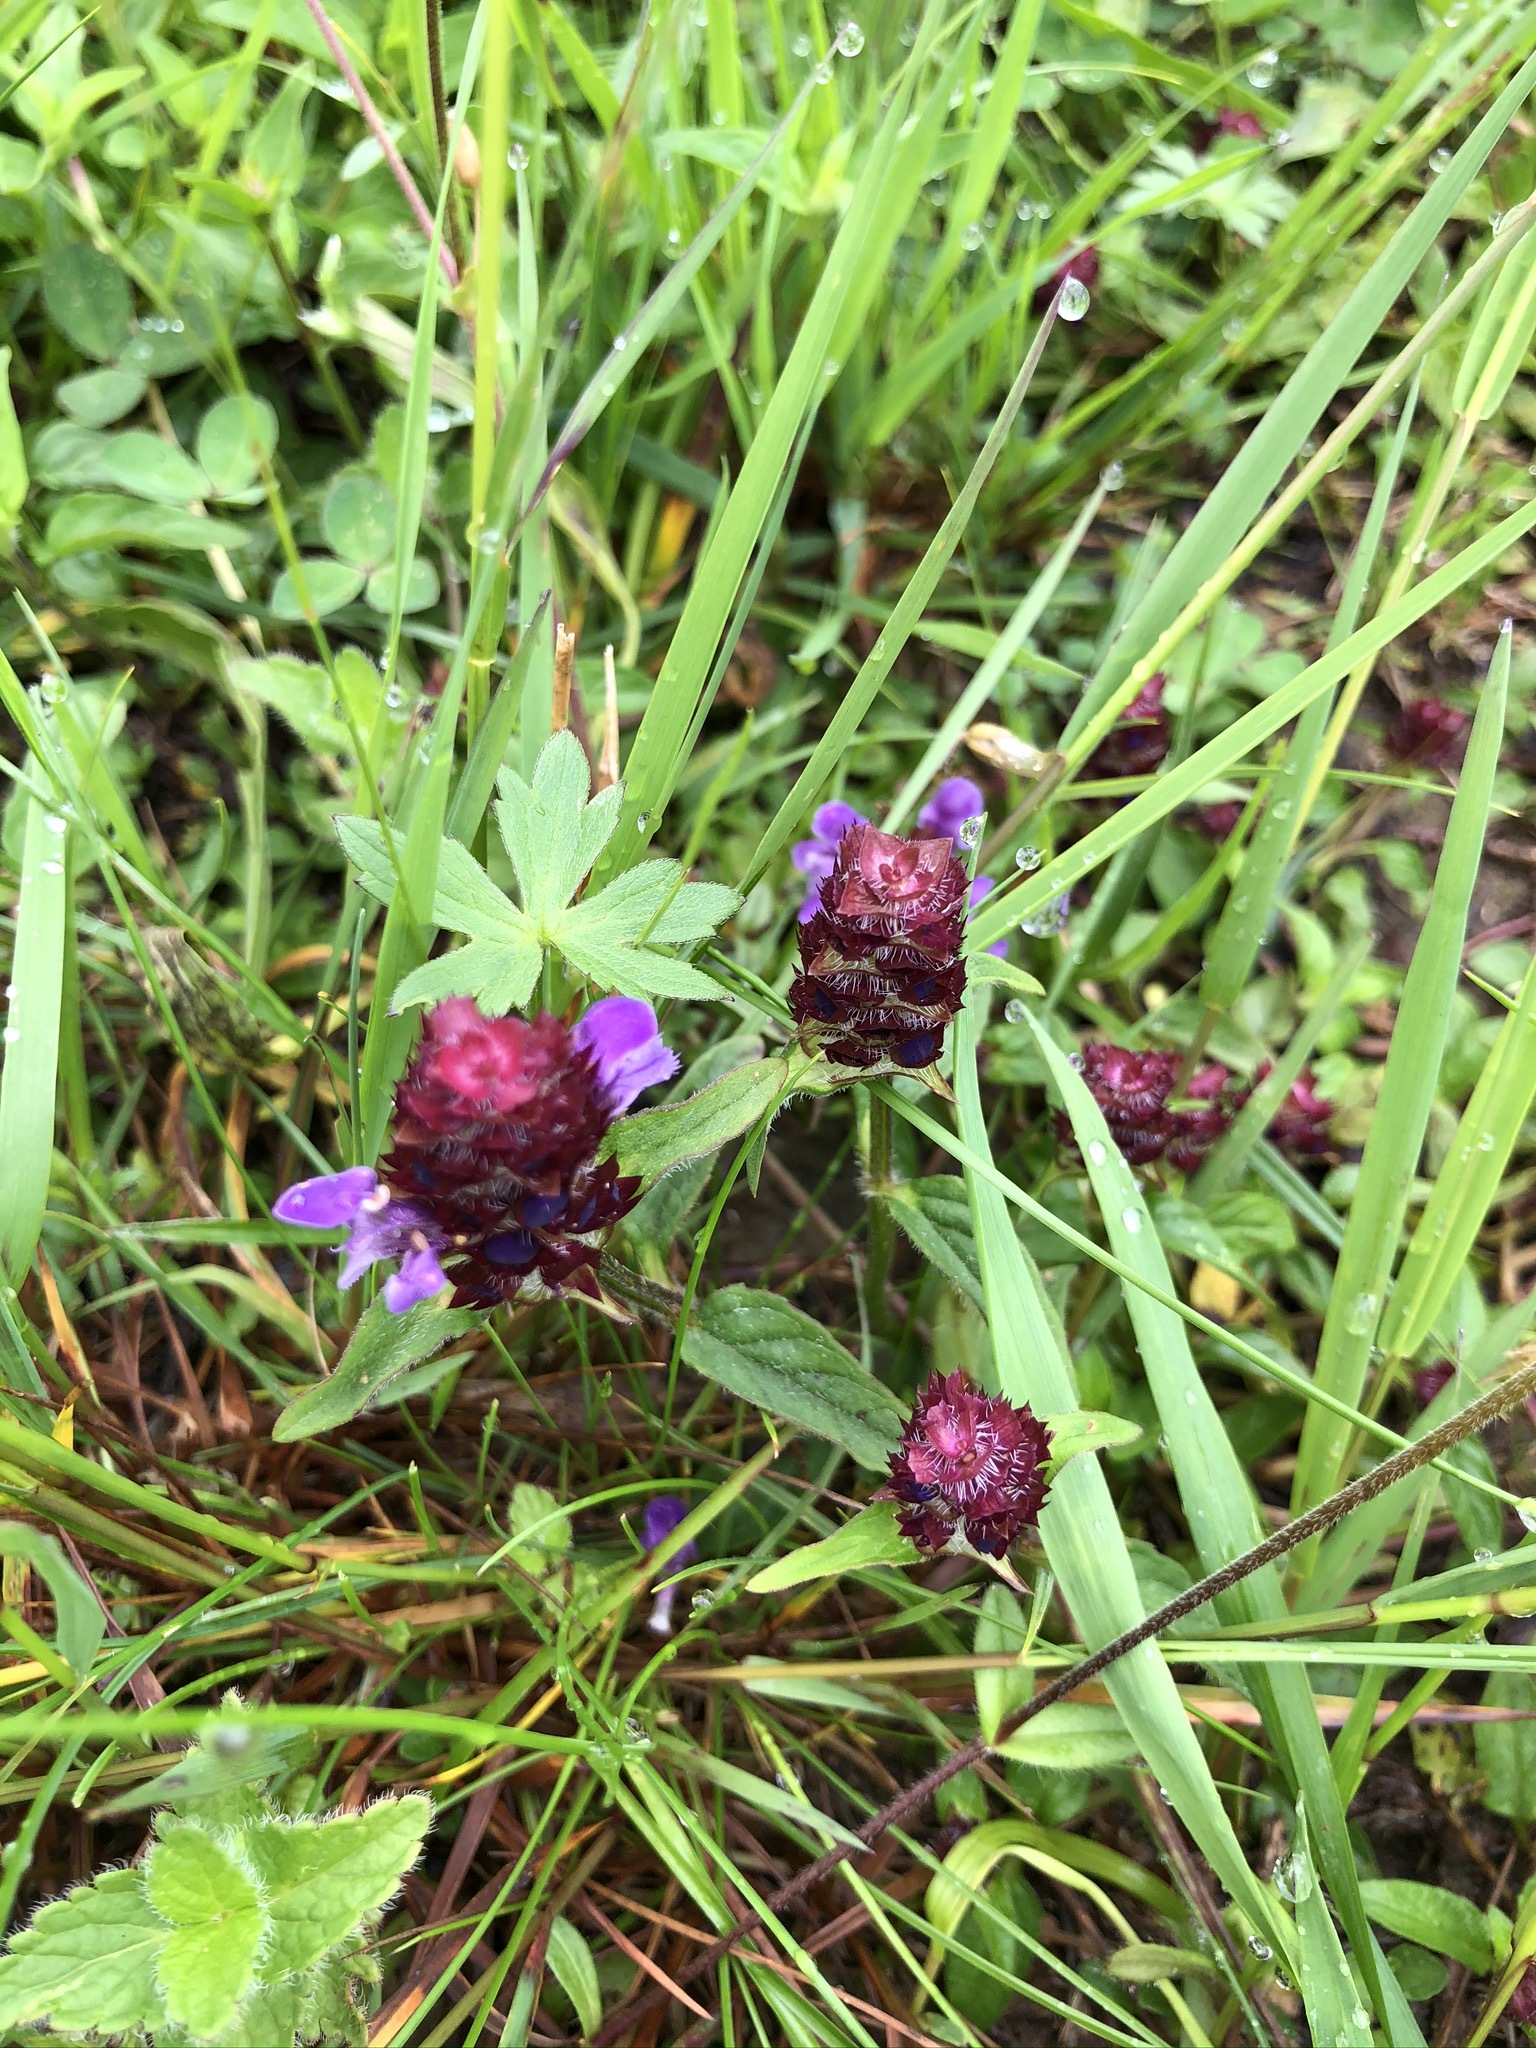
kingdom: Plantae
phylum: Tracheophyta
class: Magnoliopsida
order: Lamiales
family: Lamiaceae
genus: Prunella
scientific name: Prunella vulgaris
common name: Heal-all
